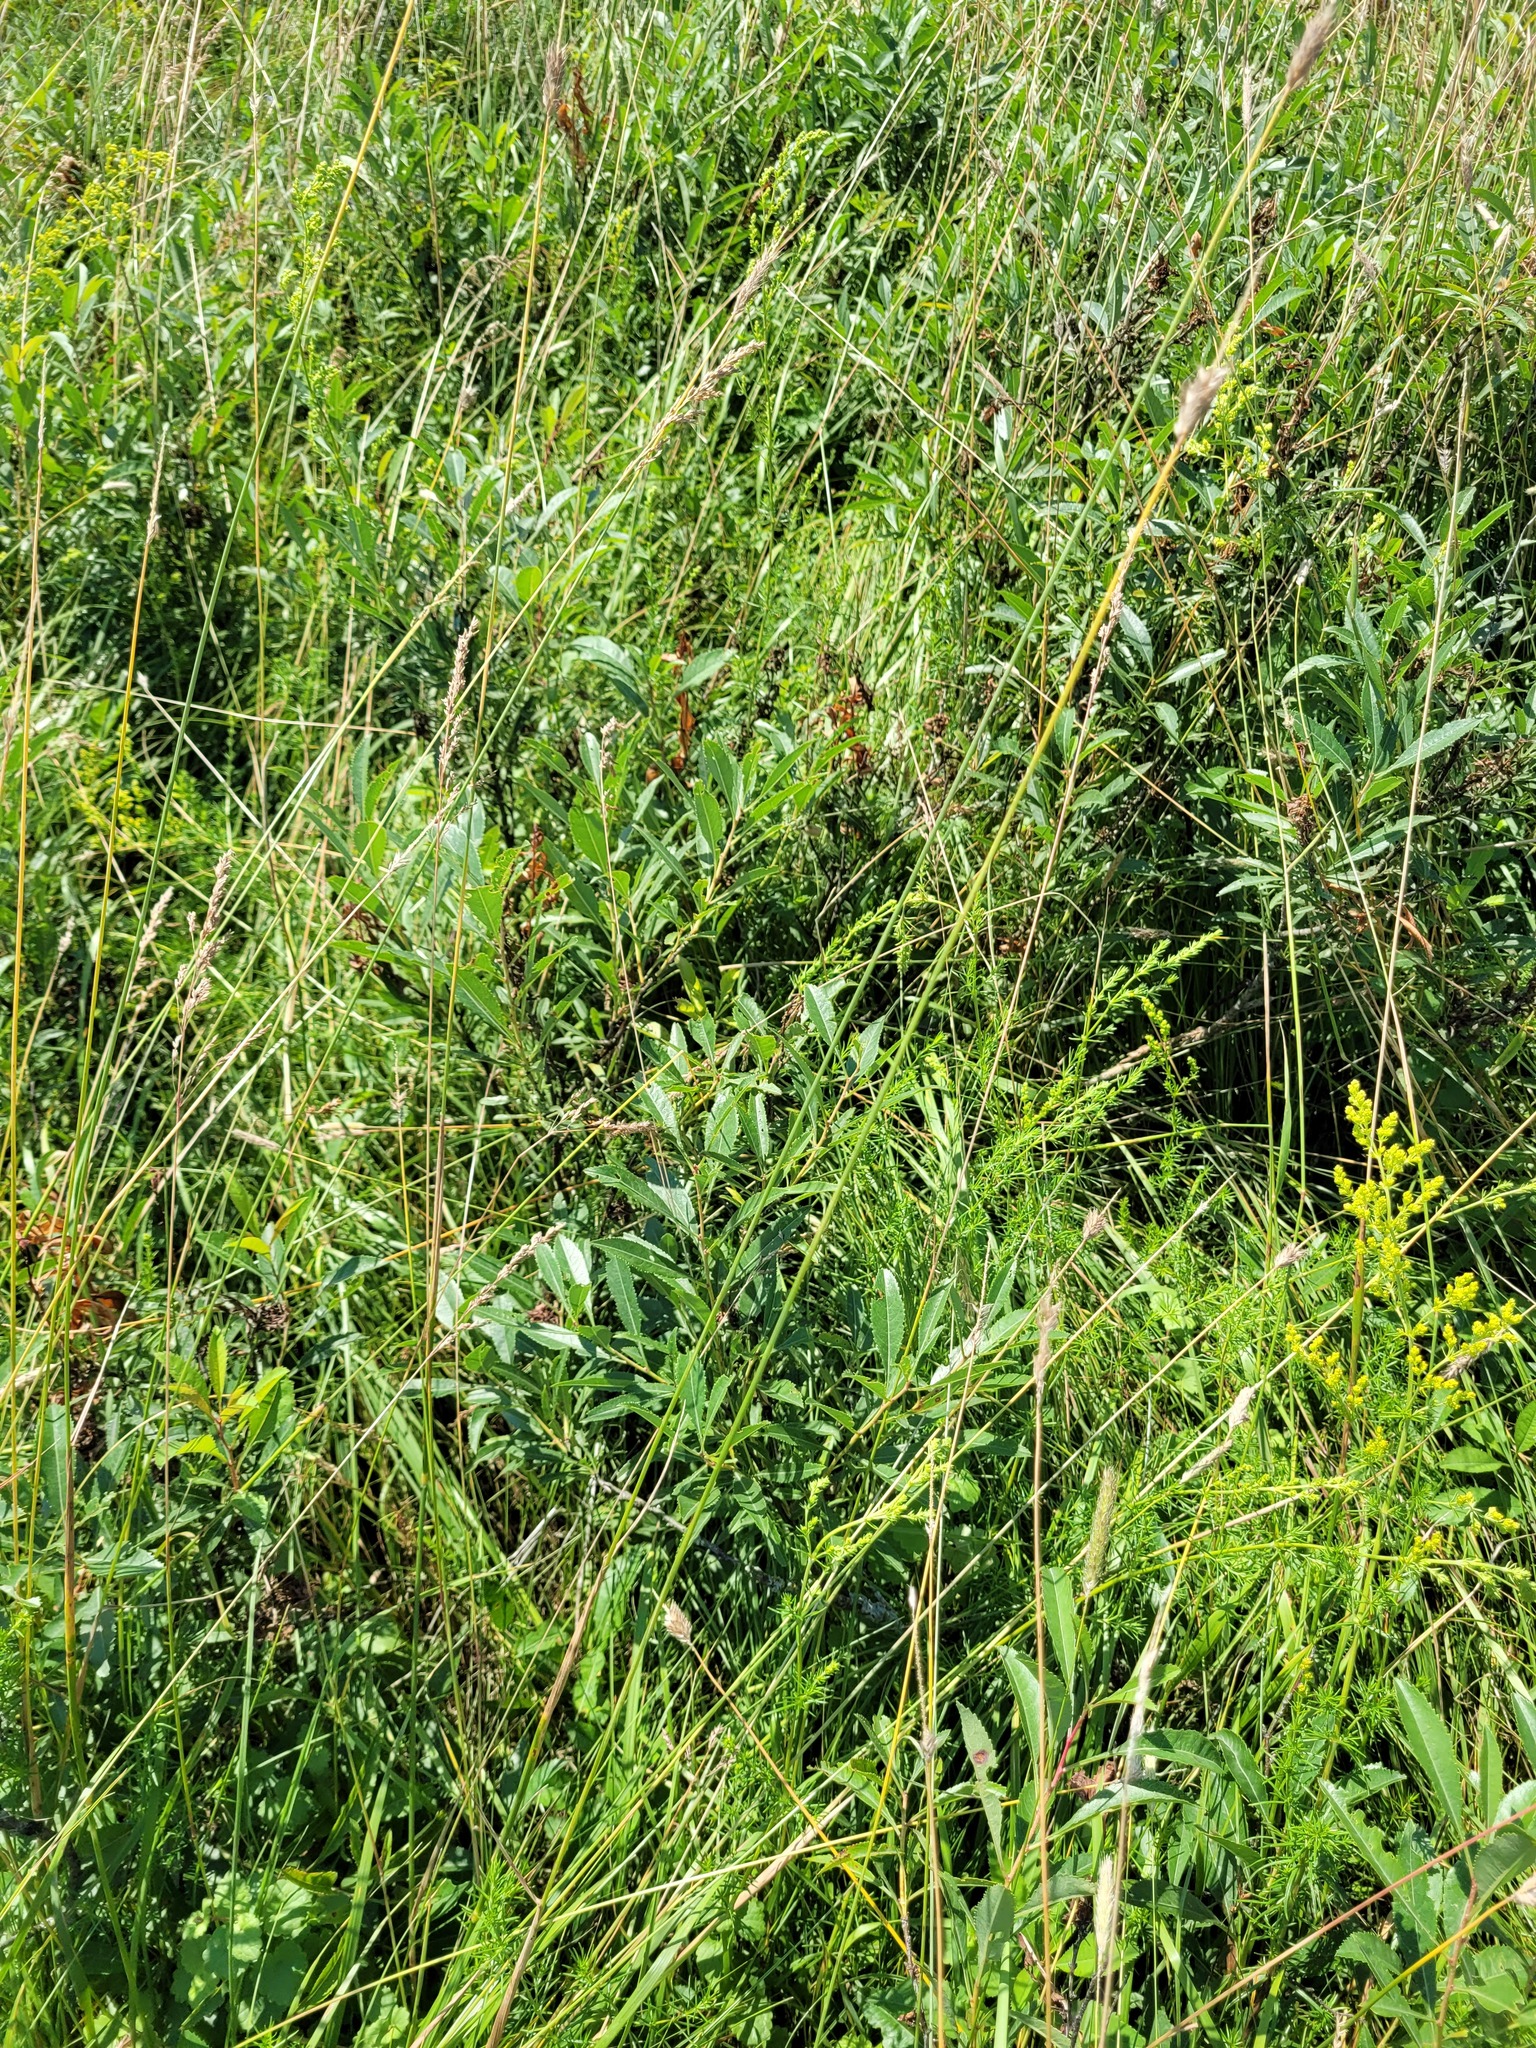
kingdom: Plantae
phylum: Tracheophyta
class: Magnoliopsida
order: Rosales
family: Rosaceae
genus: Prunus
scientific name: Prunus tenella
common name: Dwarf russian almond
